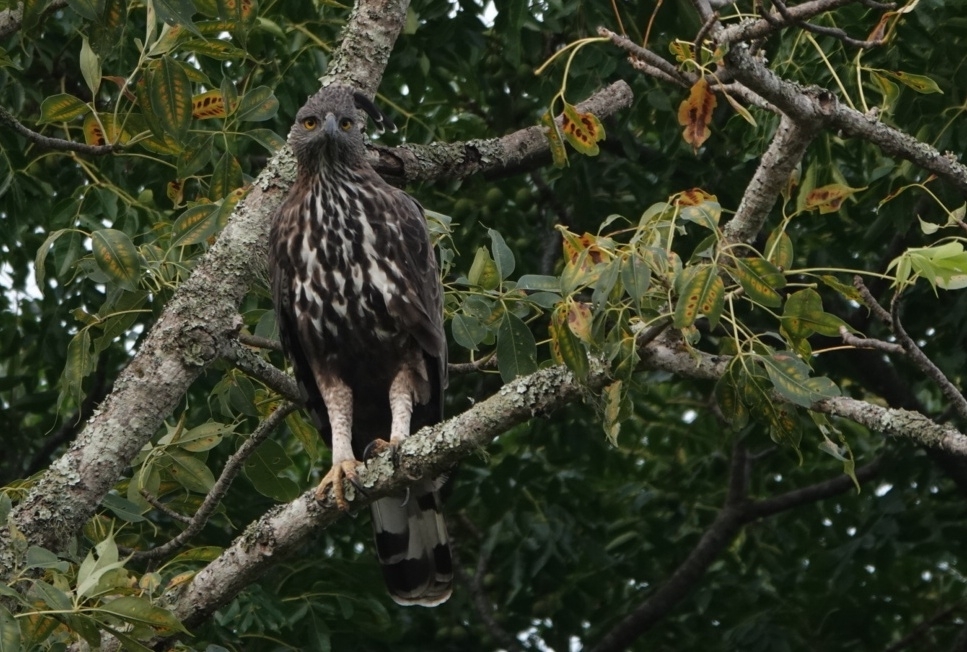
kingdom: Animalia
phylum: Chordata
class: Aves
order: Accipitriformes
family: Accipitridae
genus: Nisaetus
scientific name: Nisaetus cirrhatus
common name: Changeable hawk-eagle
